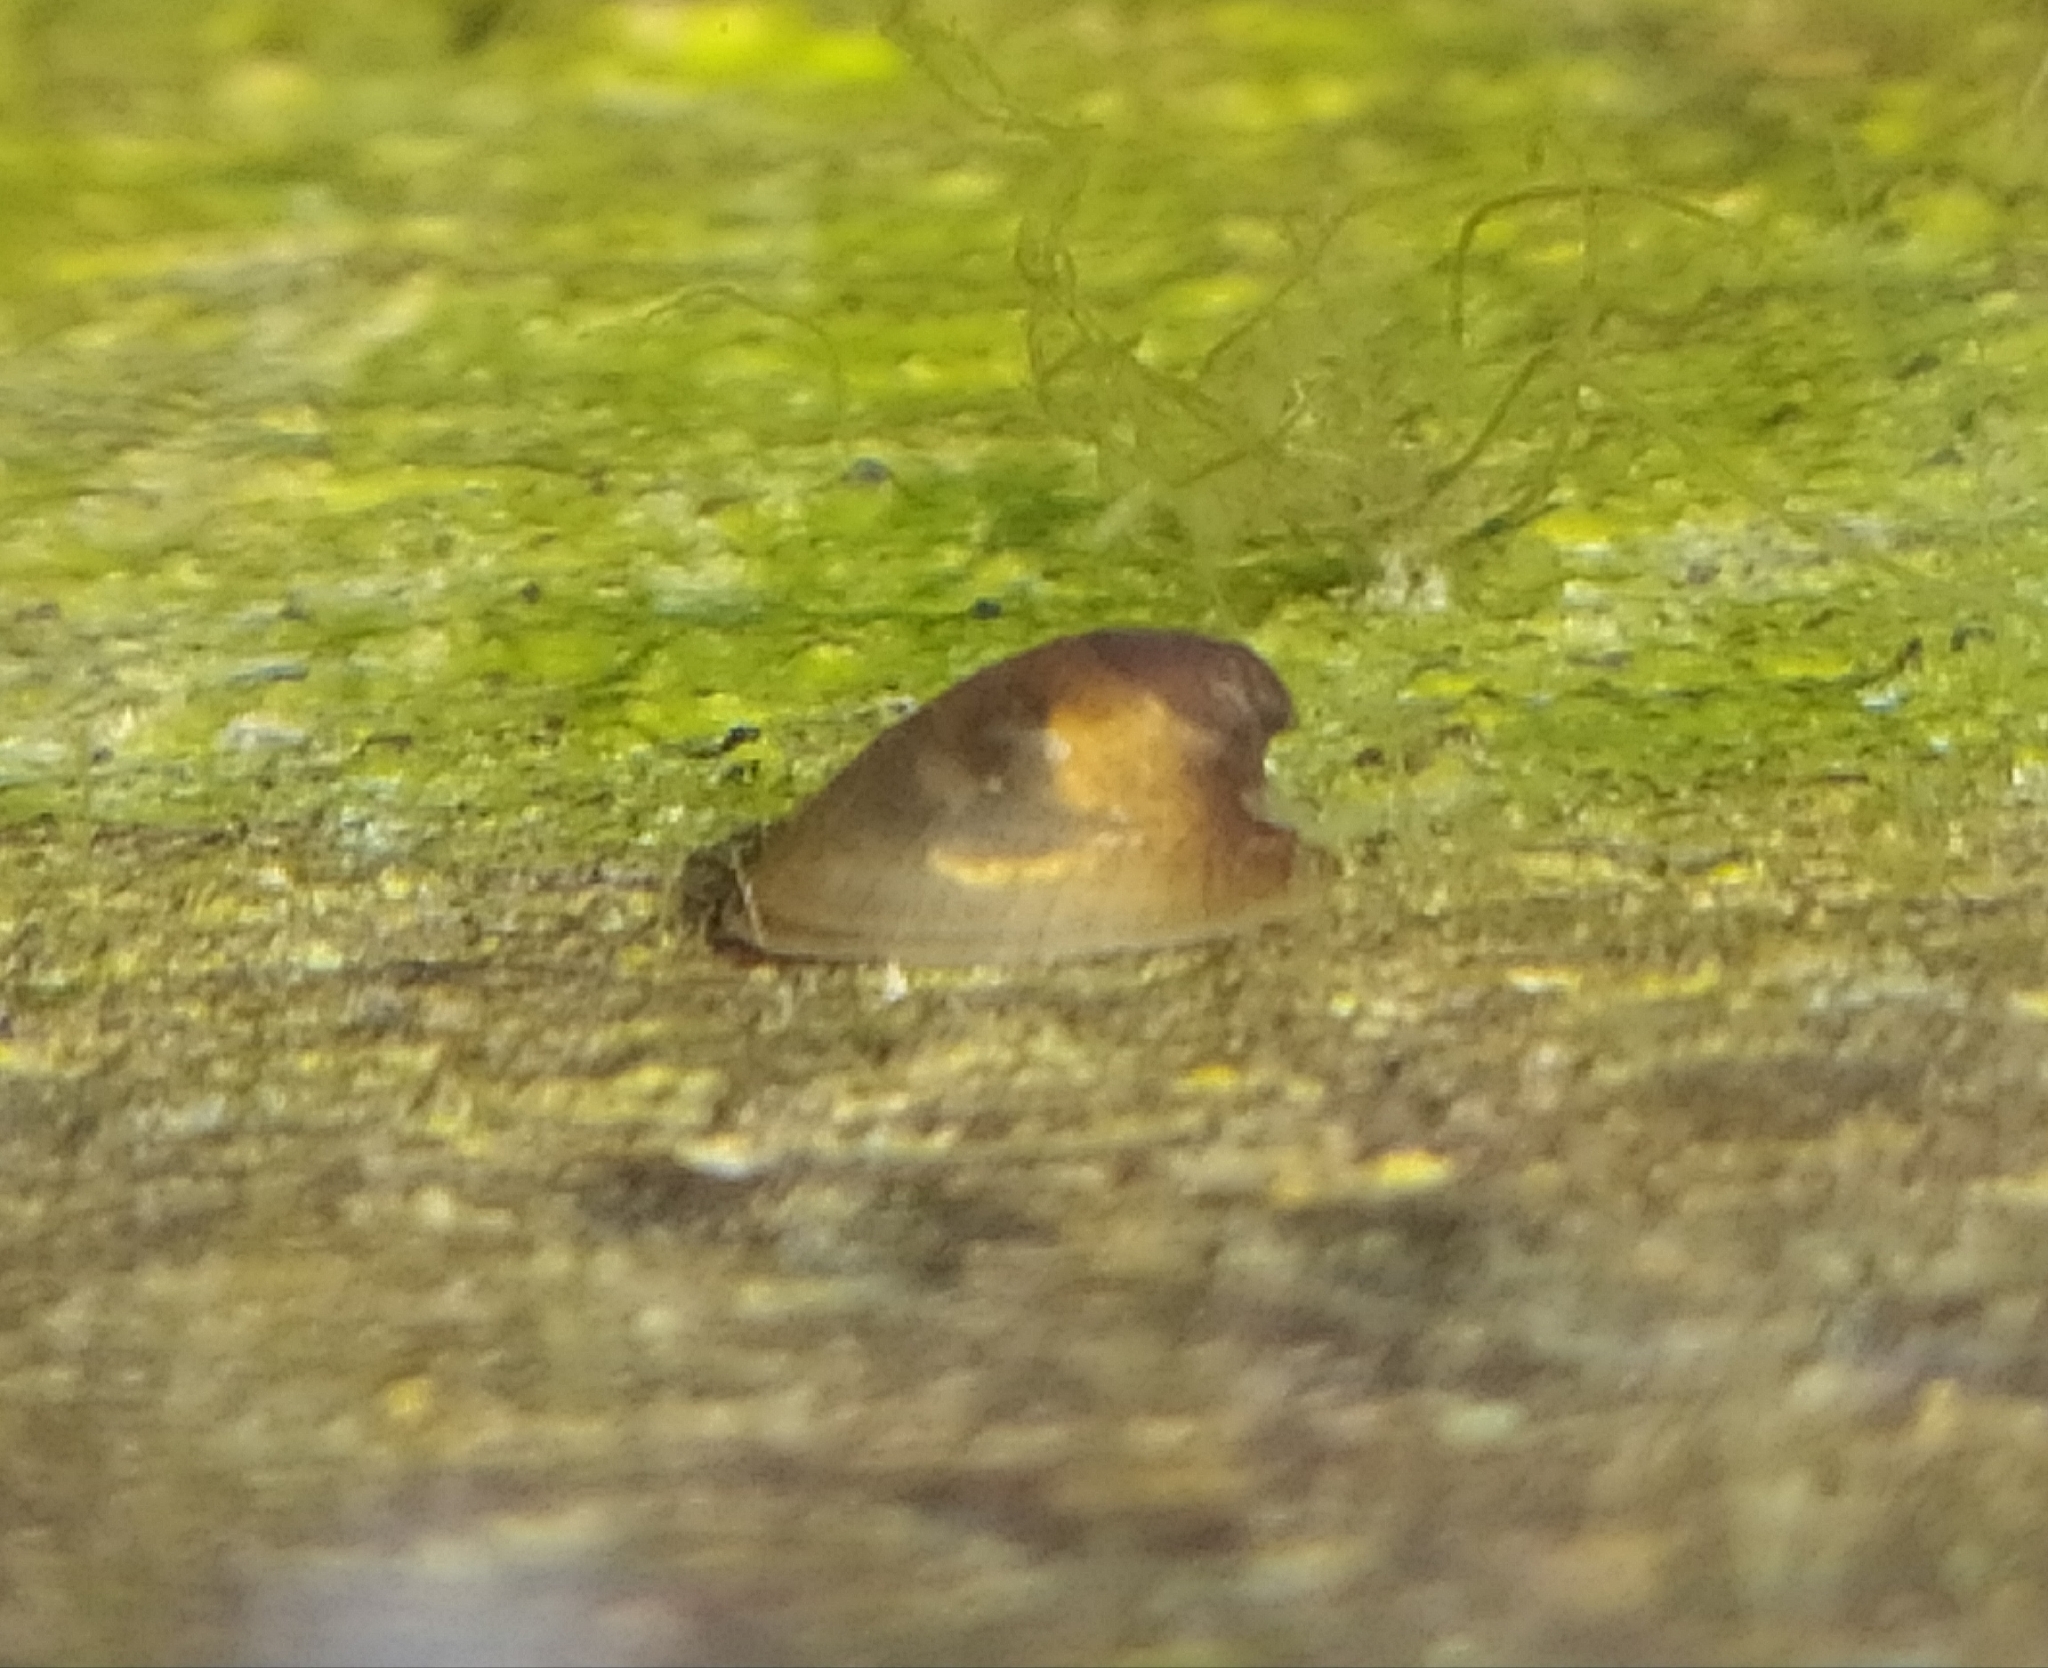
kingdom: Animalia
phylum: Mollusca
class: Gastropoda
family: Planorbidae
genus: Ancylus
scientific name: Ancylus fluviatilis
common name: River limpet
